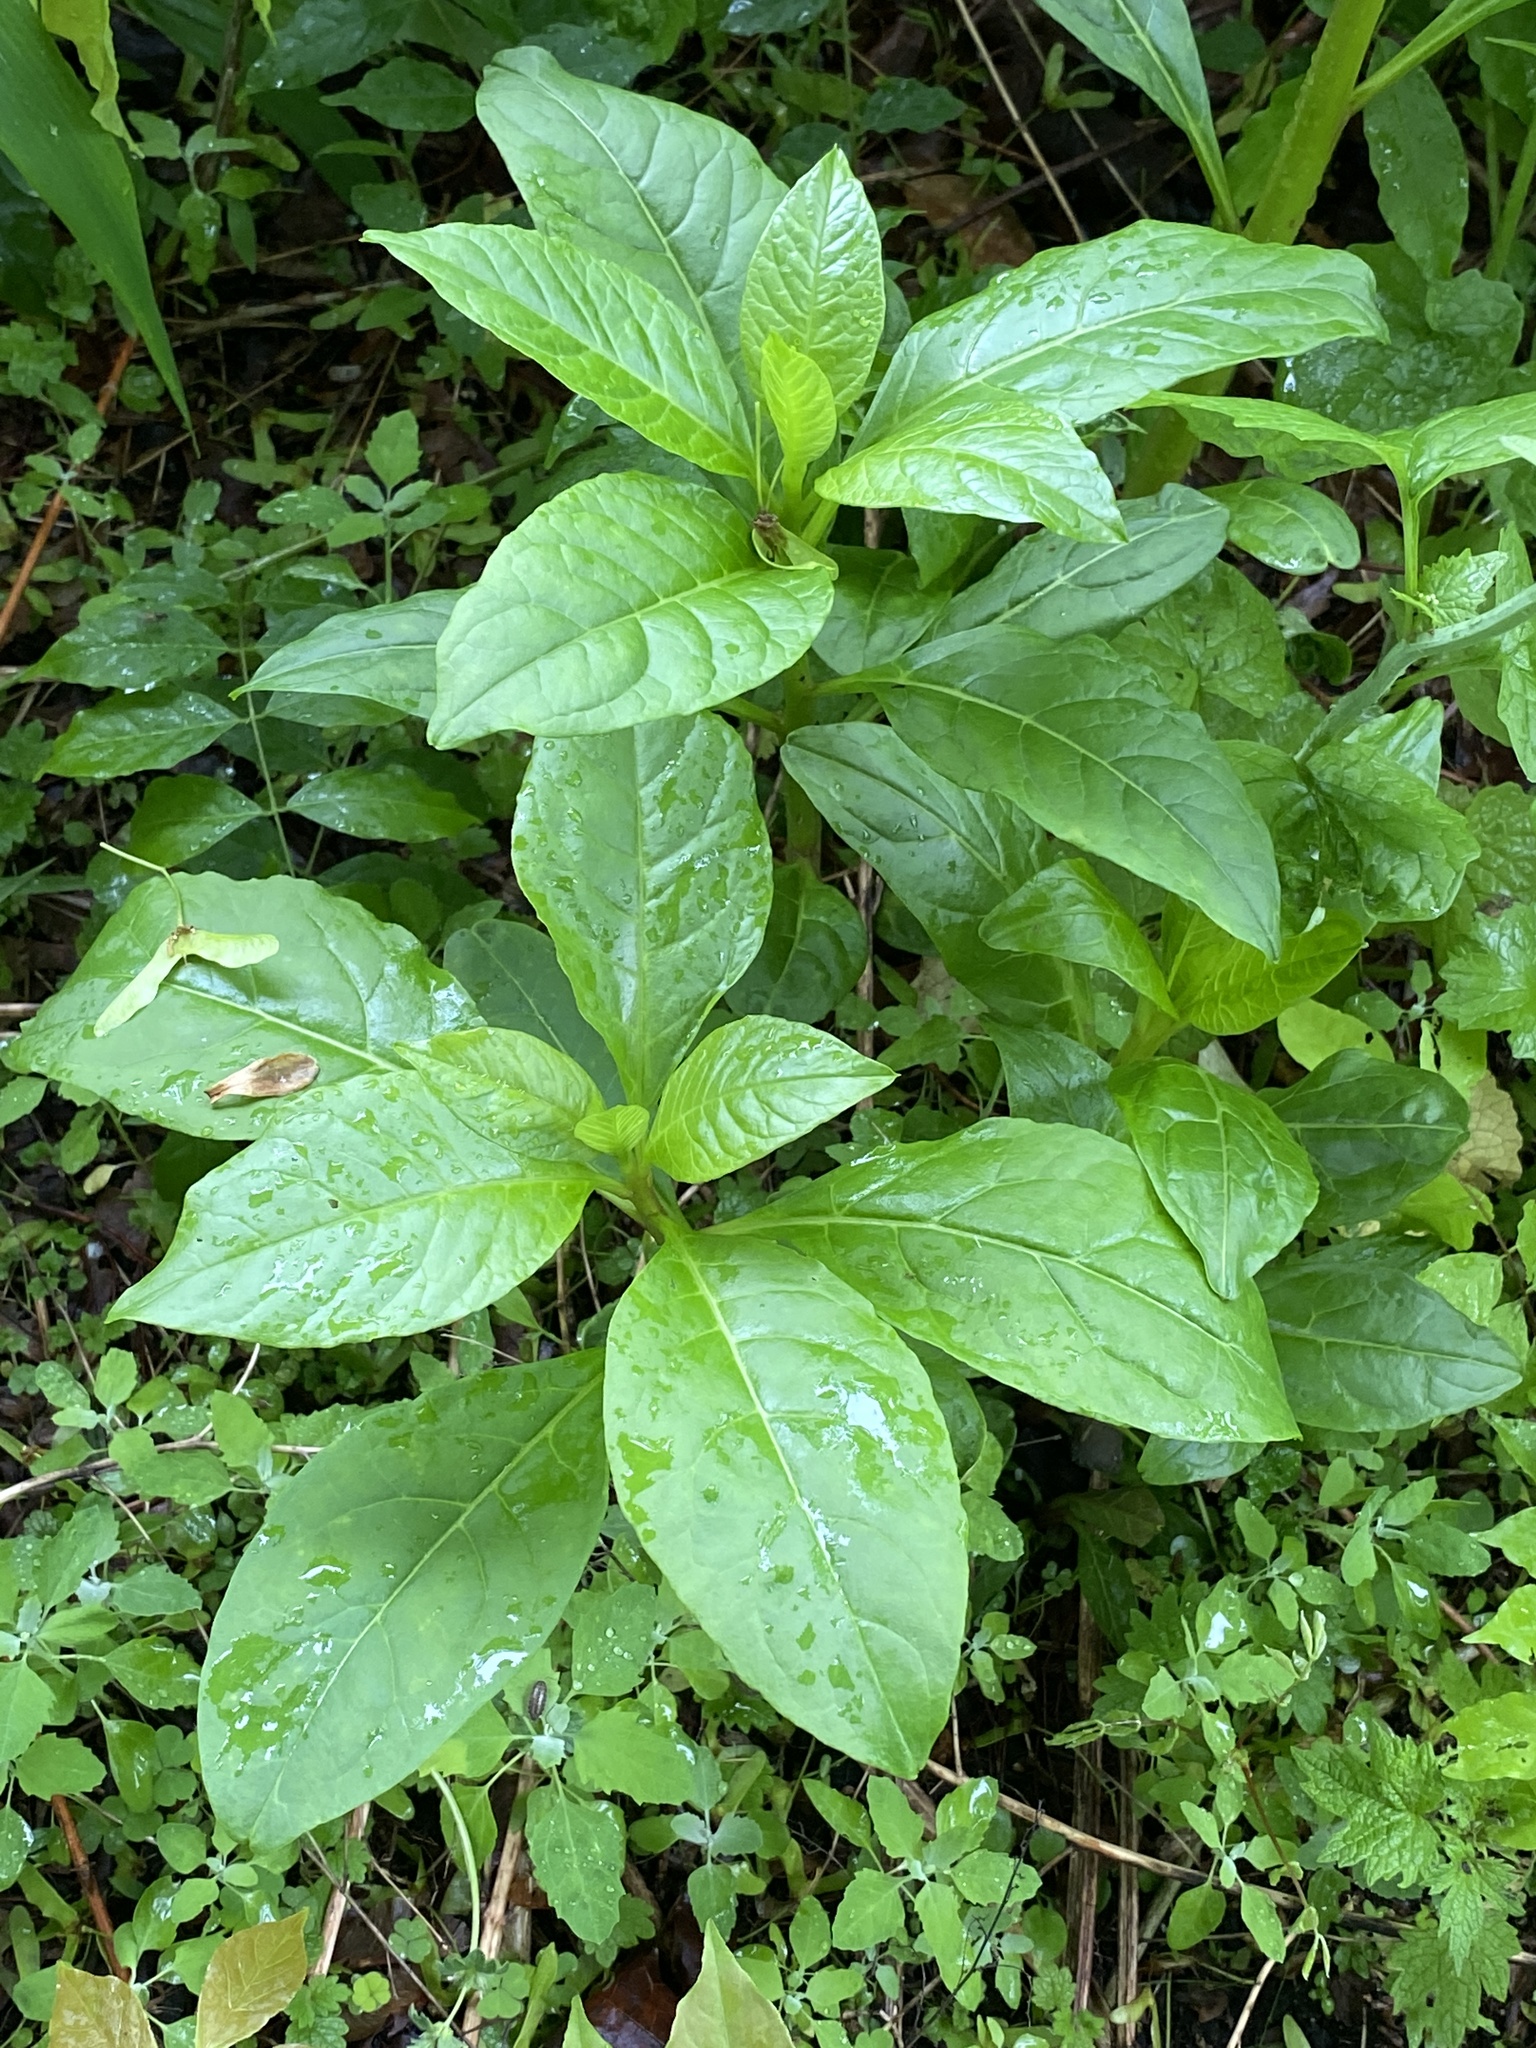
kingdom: Plantae
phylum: Tracheophyta
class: Magnoliopsida
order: Caryophyllales
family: Phytolaccaceae
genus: Phytolacca
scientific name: Phytolacca americana
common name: American pokeweed
